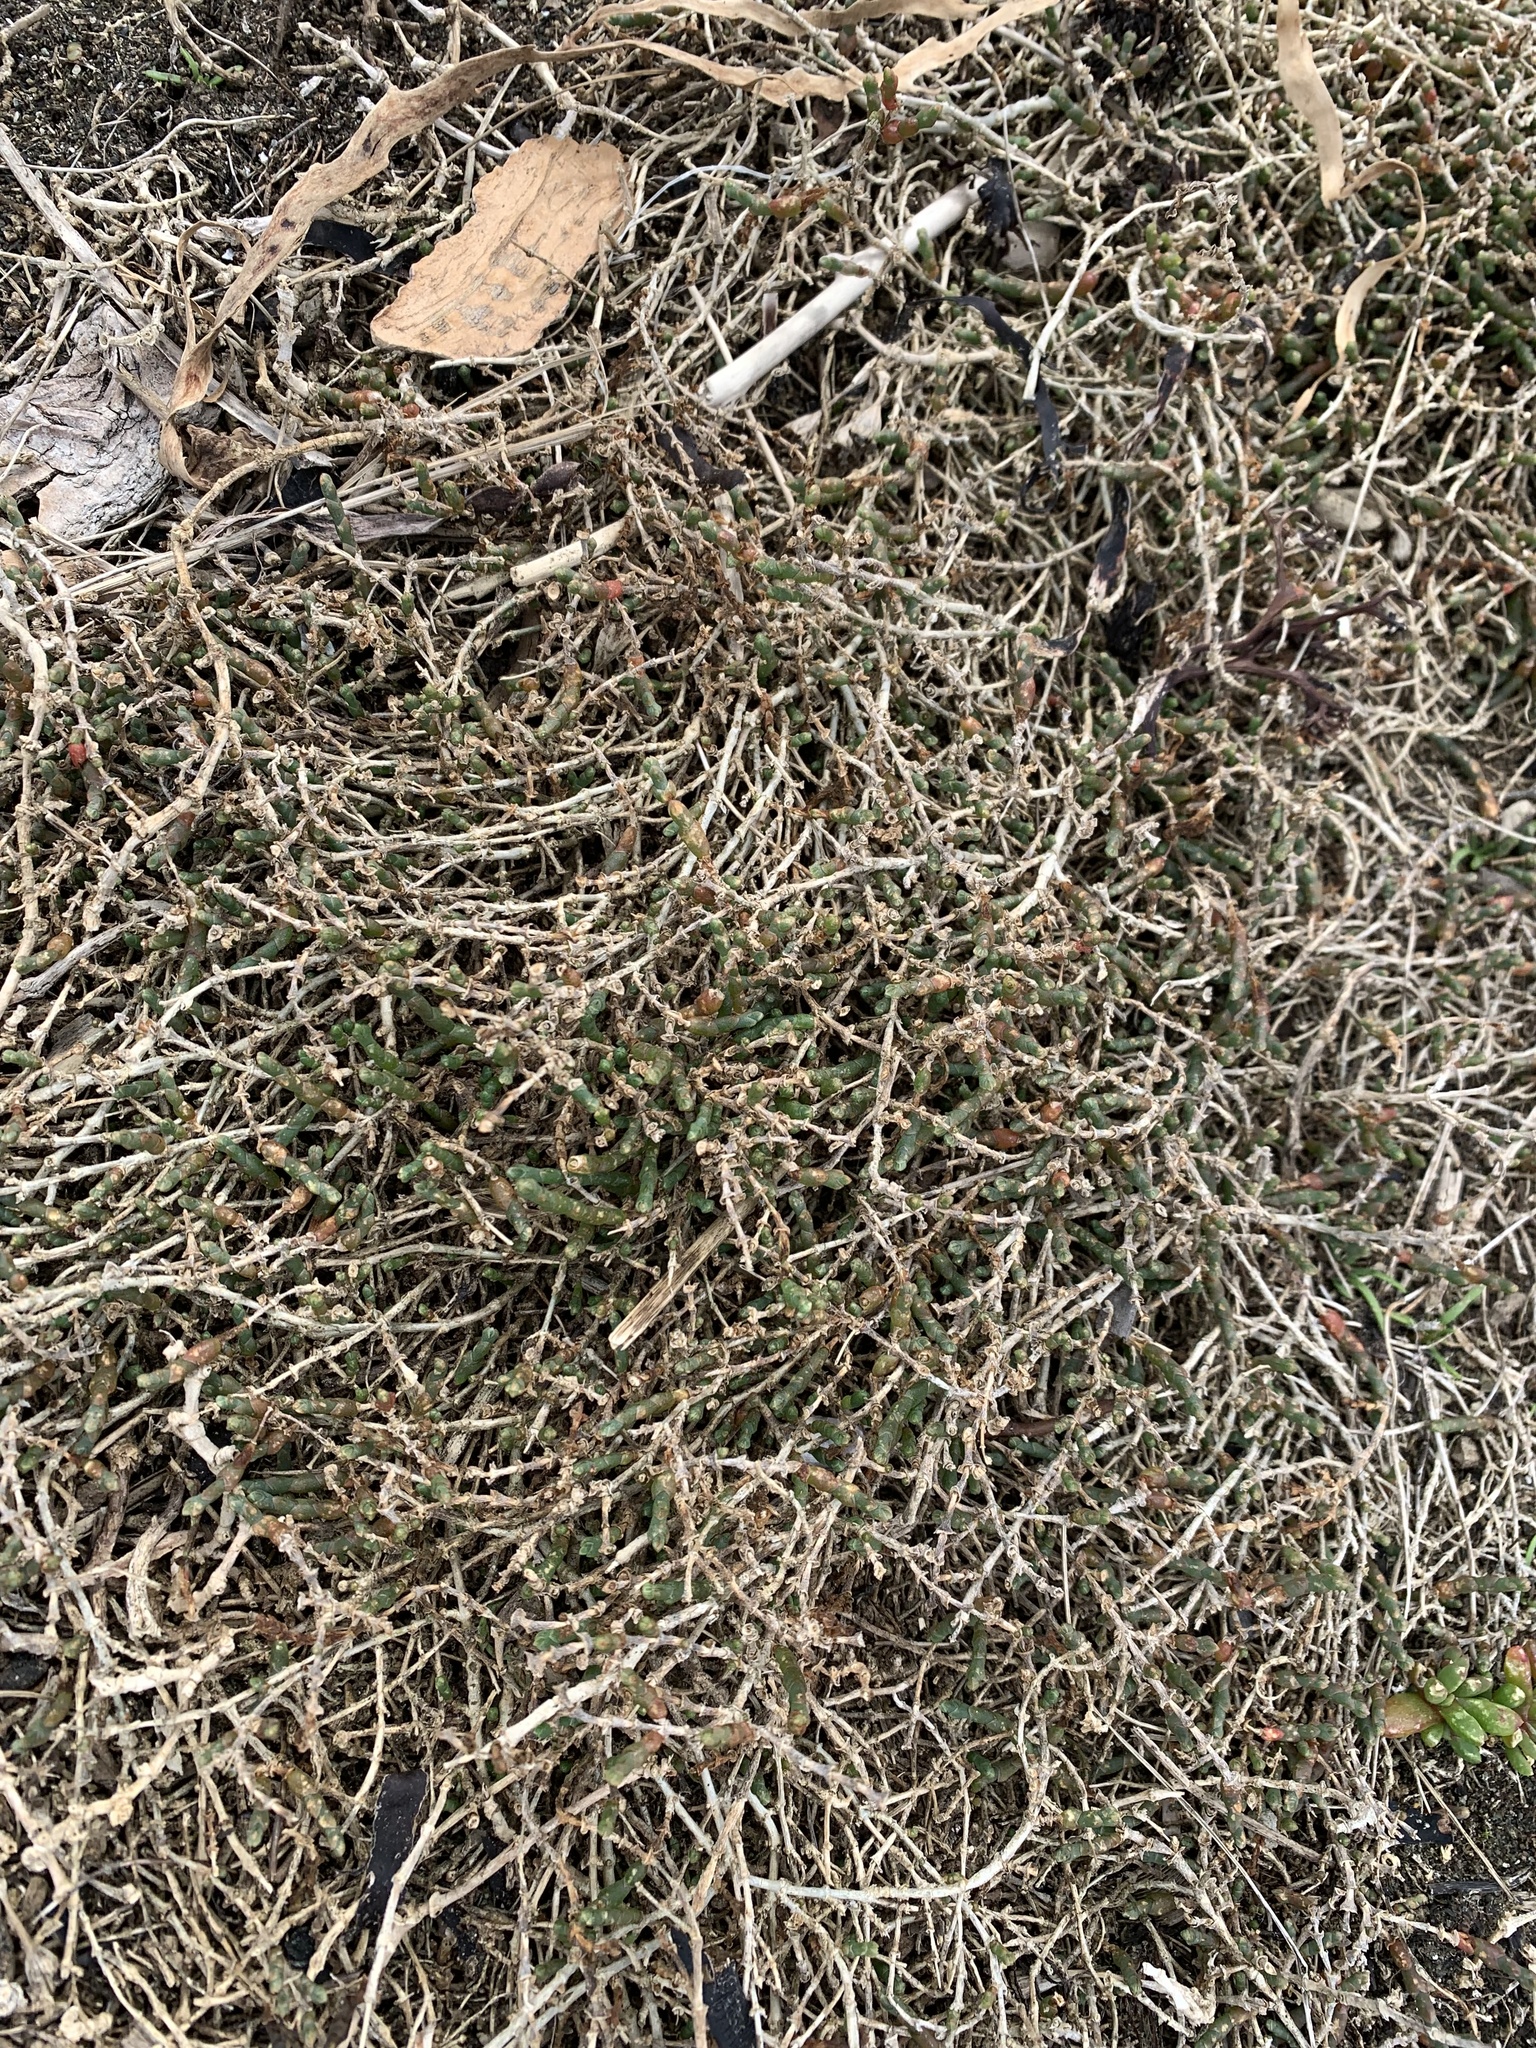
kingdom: Plantae
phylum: Tracheophyta
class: Magnoliopsida
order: Caryophyllales
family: Amaranthaceae
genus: Salicornia
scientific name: Salicornia quinqueflora
